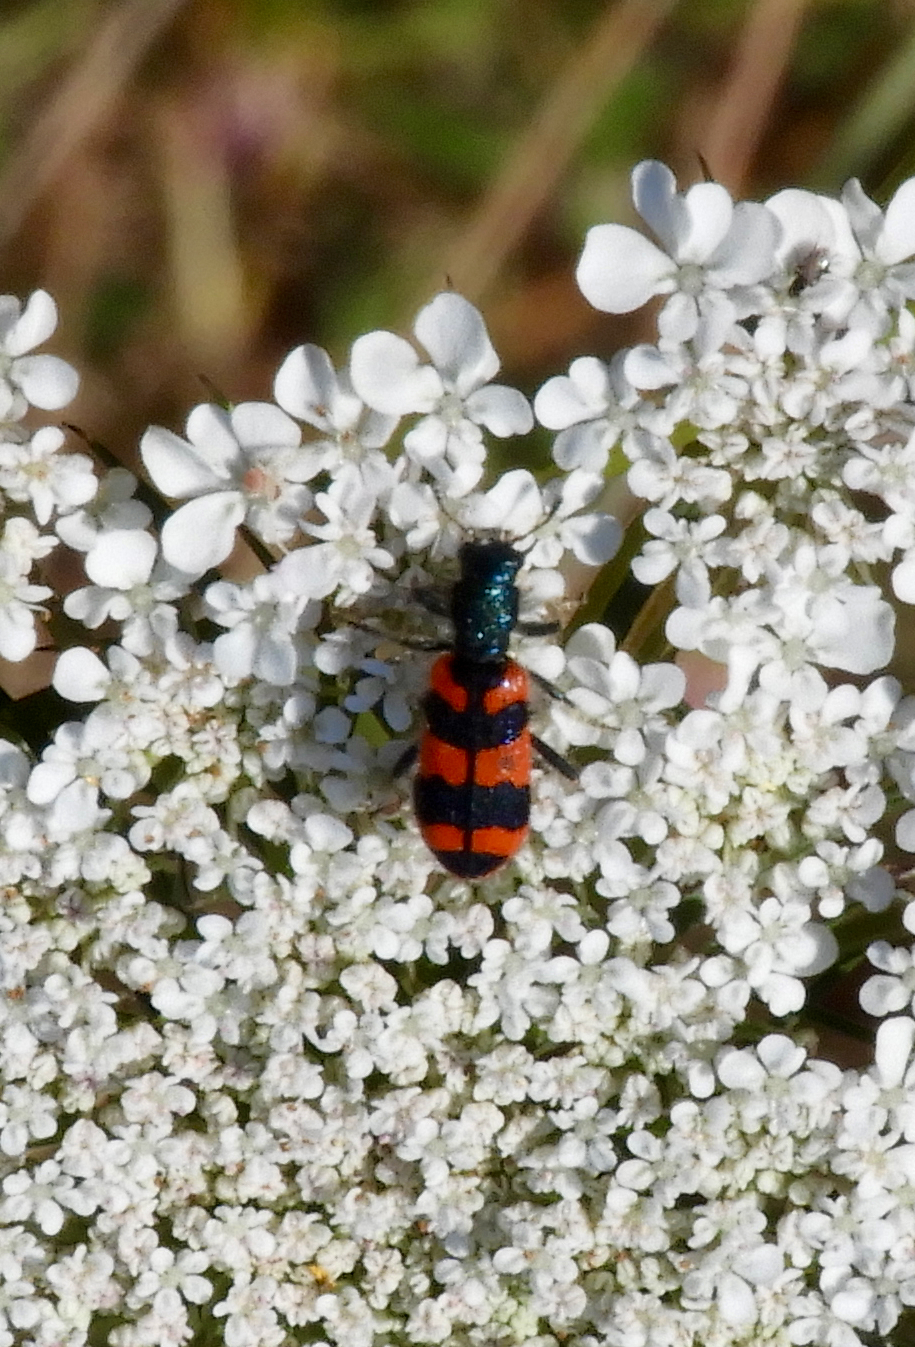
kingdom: Animalia
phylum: Arthropoda
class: Insecta
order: Coleoptera
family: Cleridae
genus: Trichodes
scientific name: Trichodes alvearius
